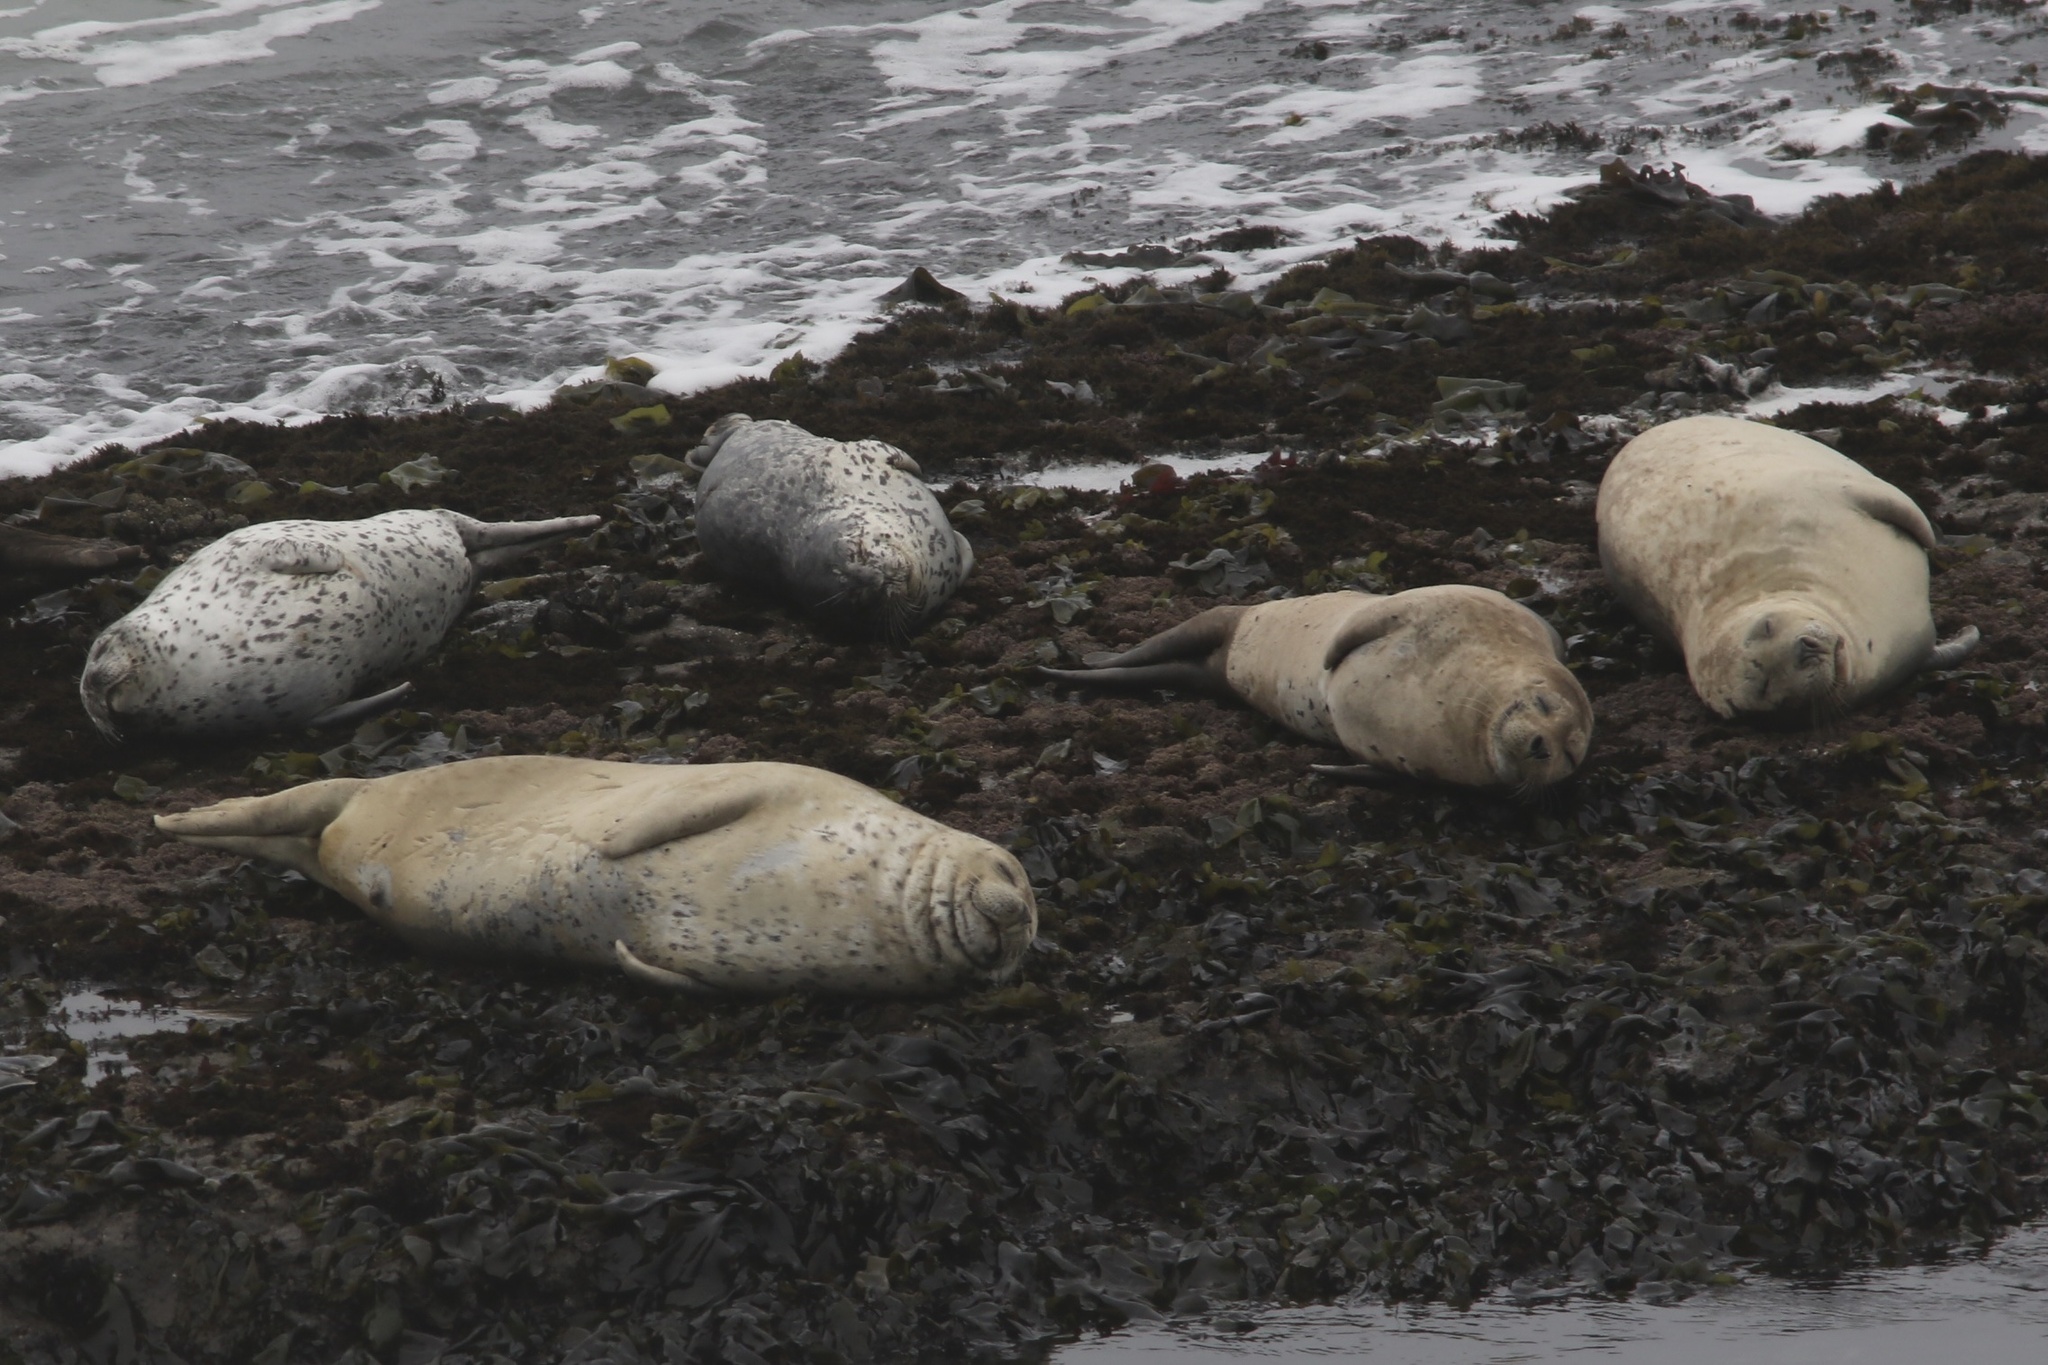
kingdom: Animalia
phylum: Chordata
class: Mammalia
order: Carnivora
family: Phocidae
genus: Phoca
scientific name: Phoca vitulina
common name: Harbor seal
